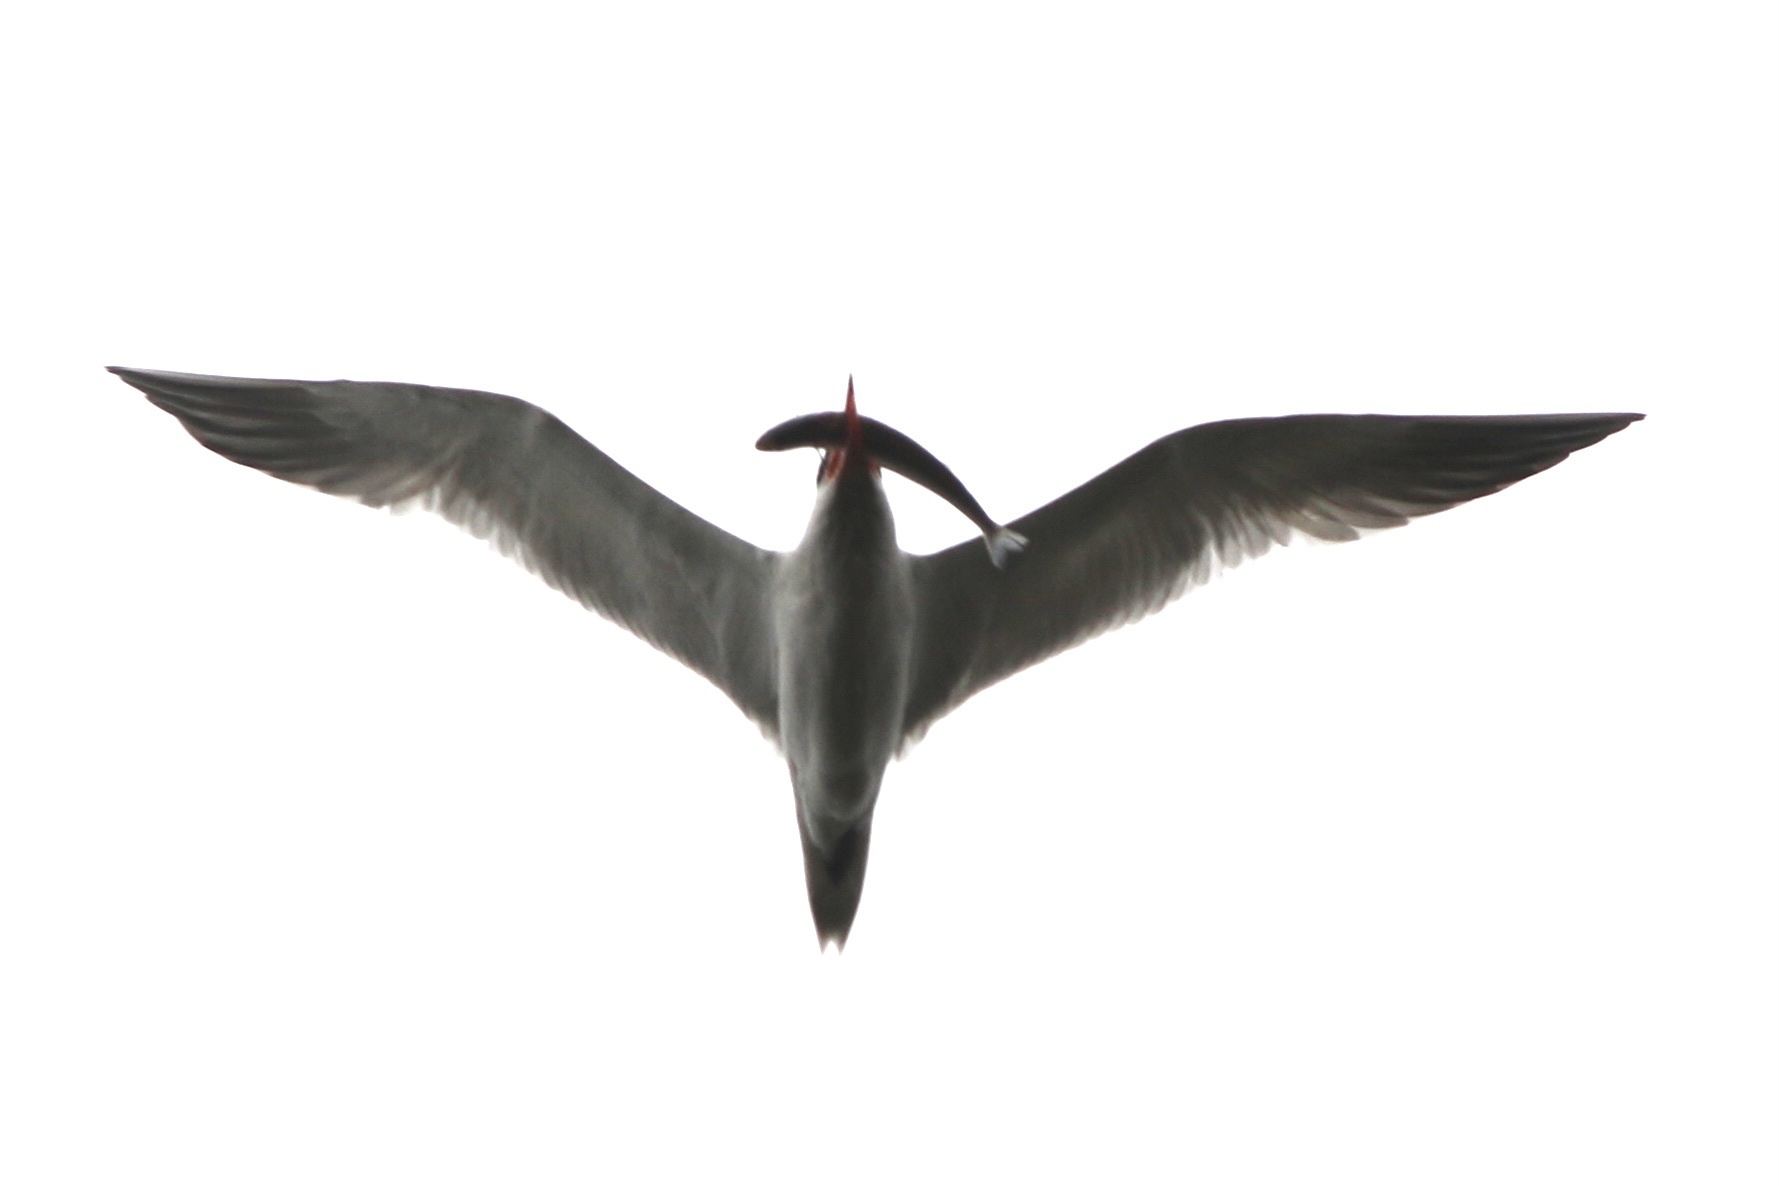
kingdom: Animalia
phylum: Chordata
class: Aves
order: Charadriiformes
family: Laridae
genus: Hydroprogne
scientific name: Hydroprogne caspia
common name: Caspian tern
